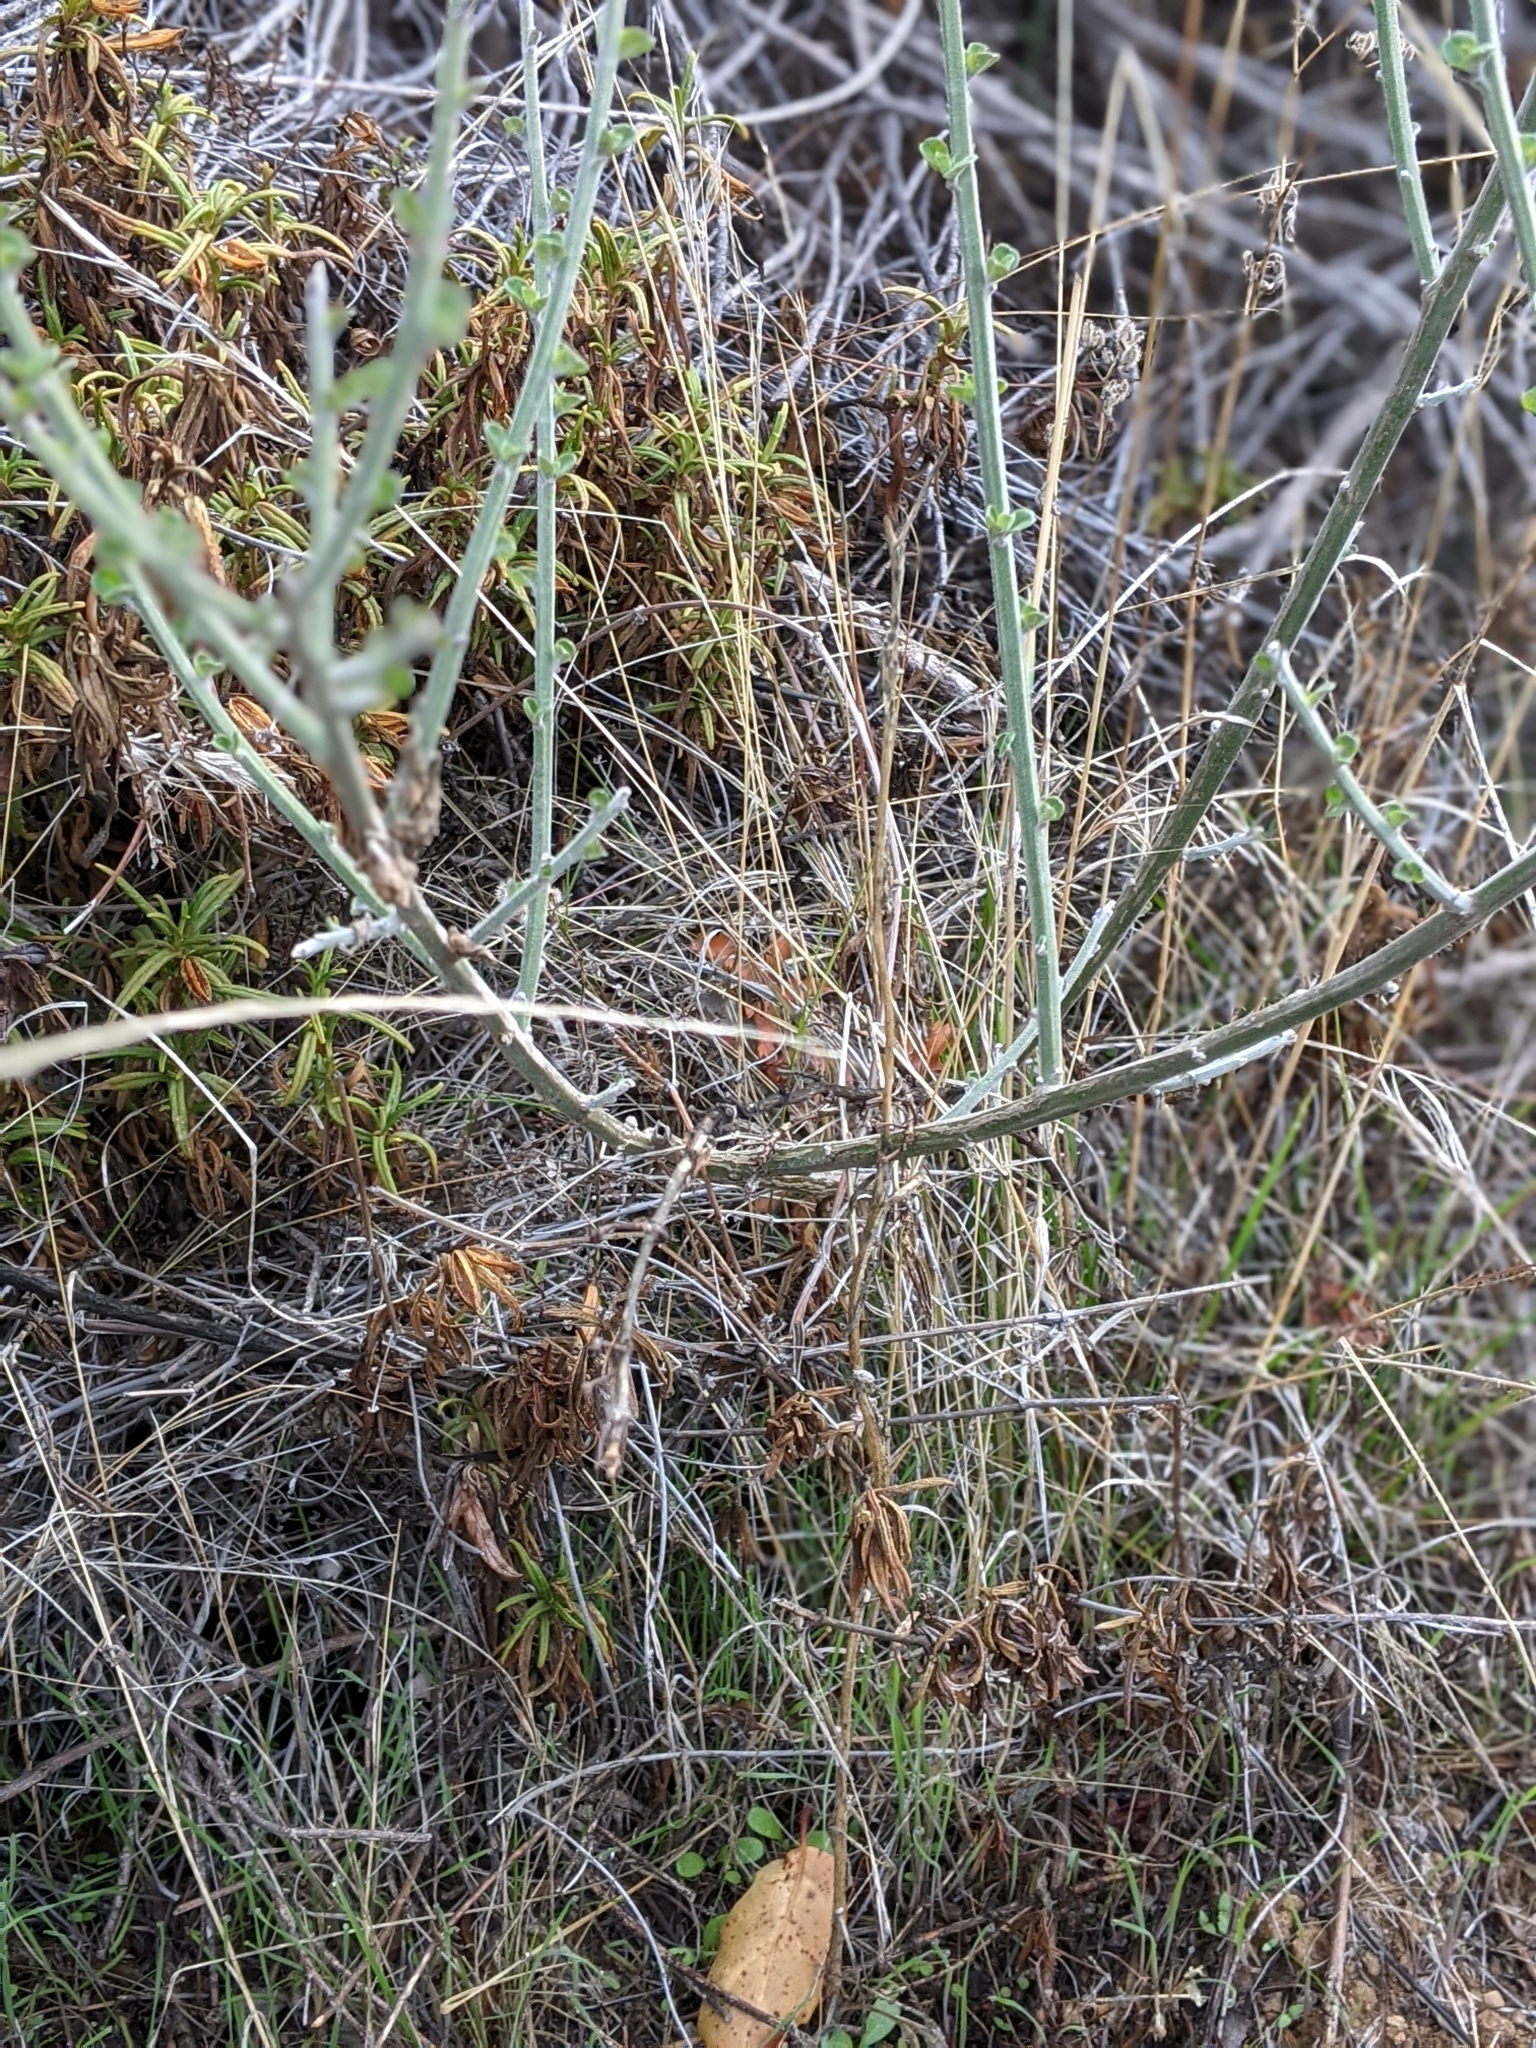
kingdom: Plantae
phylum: Tracheophyta
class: Magnoliopsida
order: Solanales
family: Solanaceae
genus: Solanum
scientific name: Solanum umbelliferum
